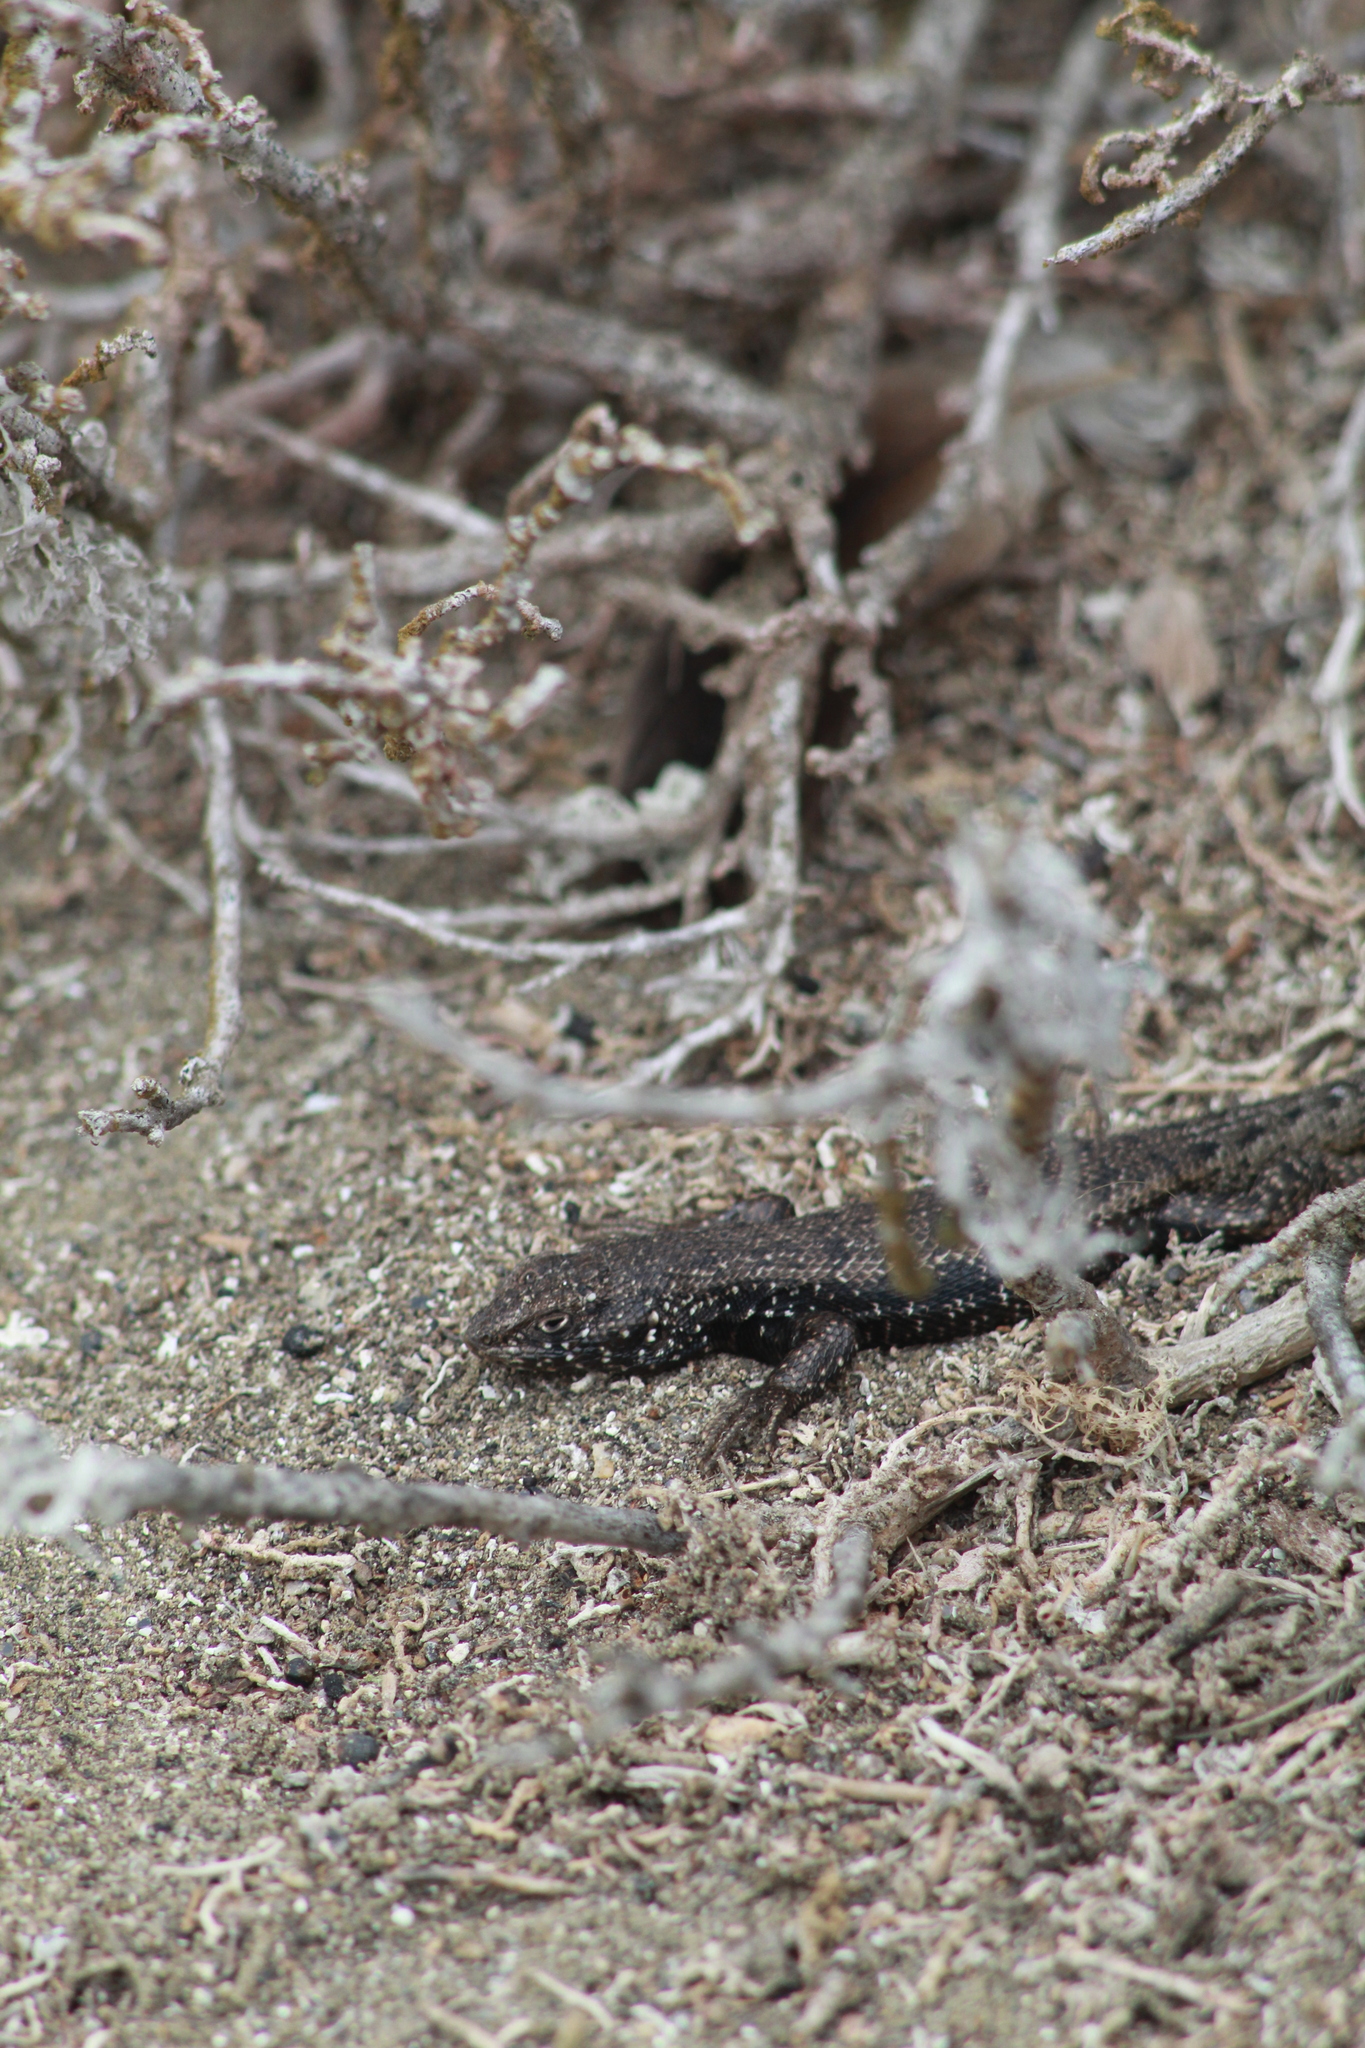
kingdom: Animalia
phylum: Chordata
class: Squamata
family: Liolaemidae
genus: Liolaemus
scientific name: Liolaemus silvai
